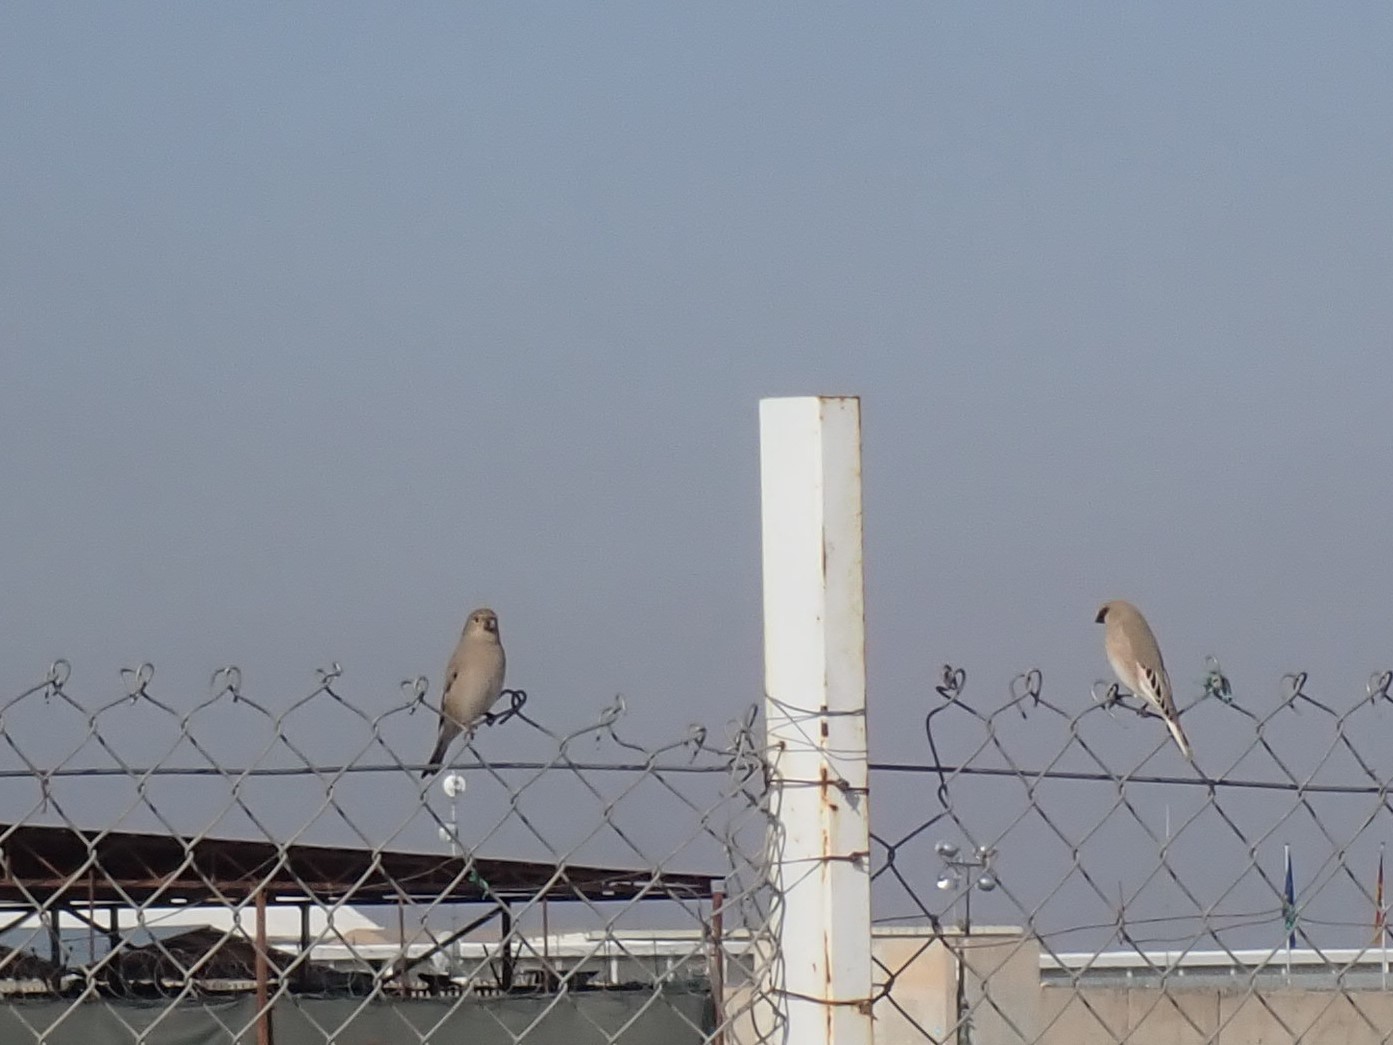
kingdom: Animalia
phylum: Chordata
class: Aves
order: Passeriformes
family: Fringillidae
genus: Rhodospiza
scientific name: Rhodospiza obsoleta
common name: Desert finch
